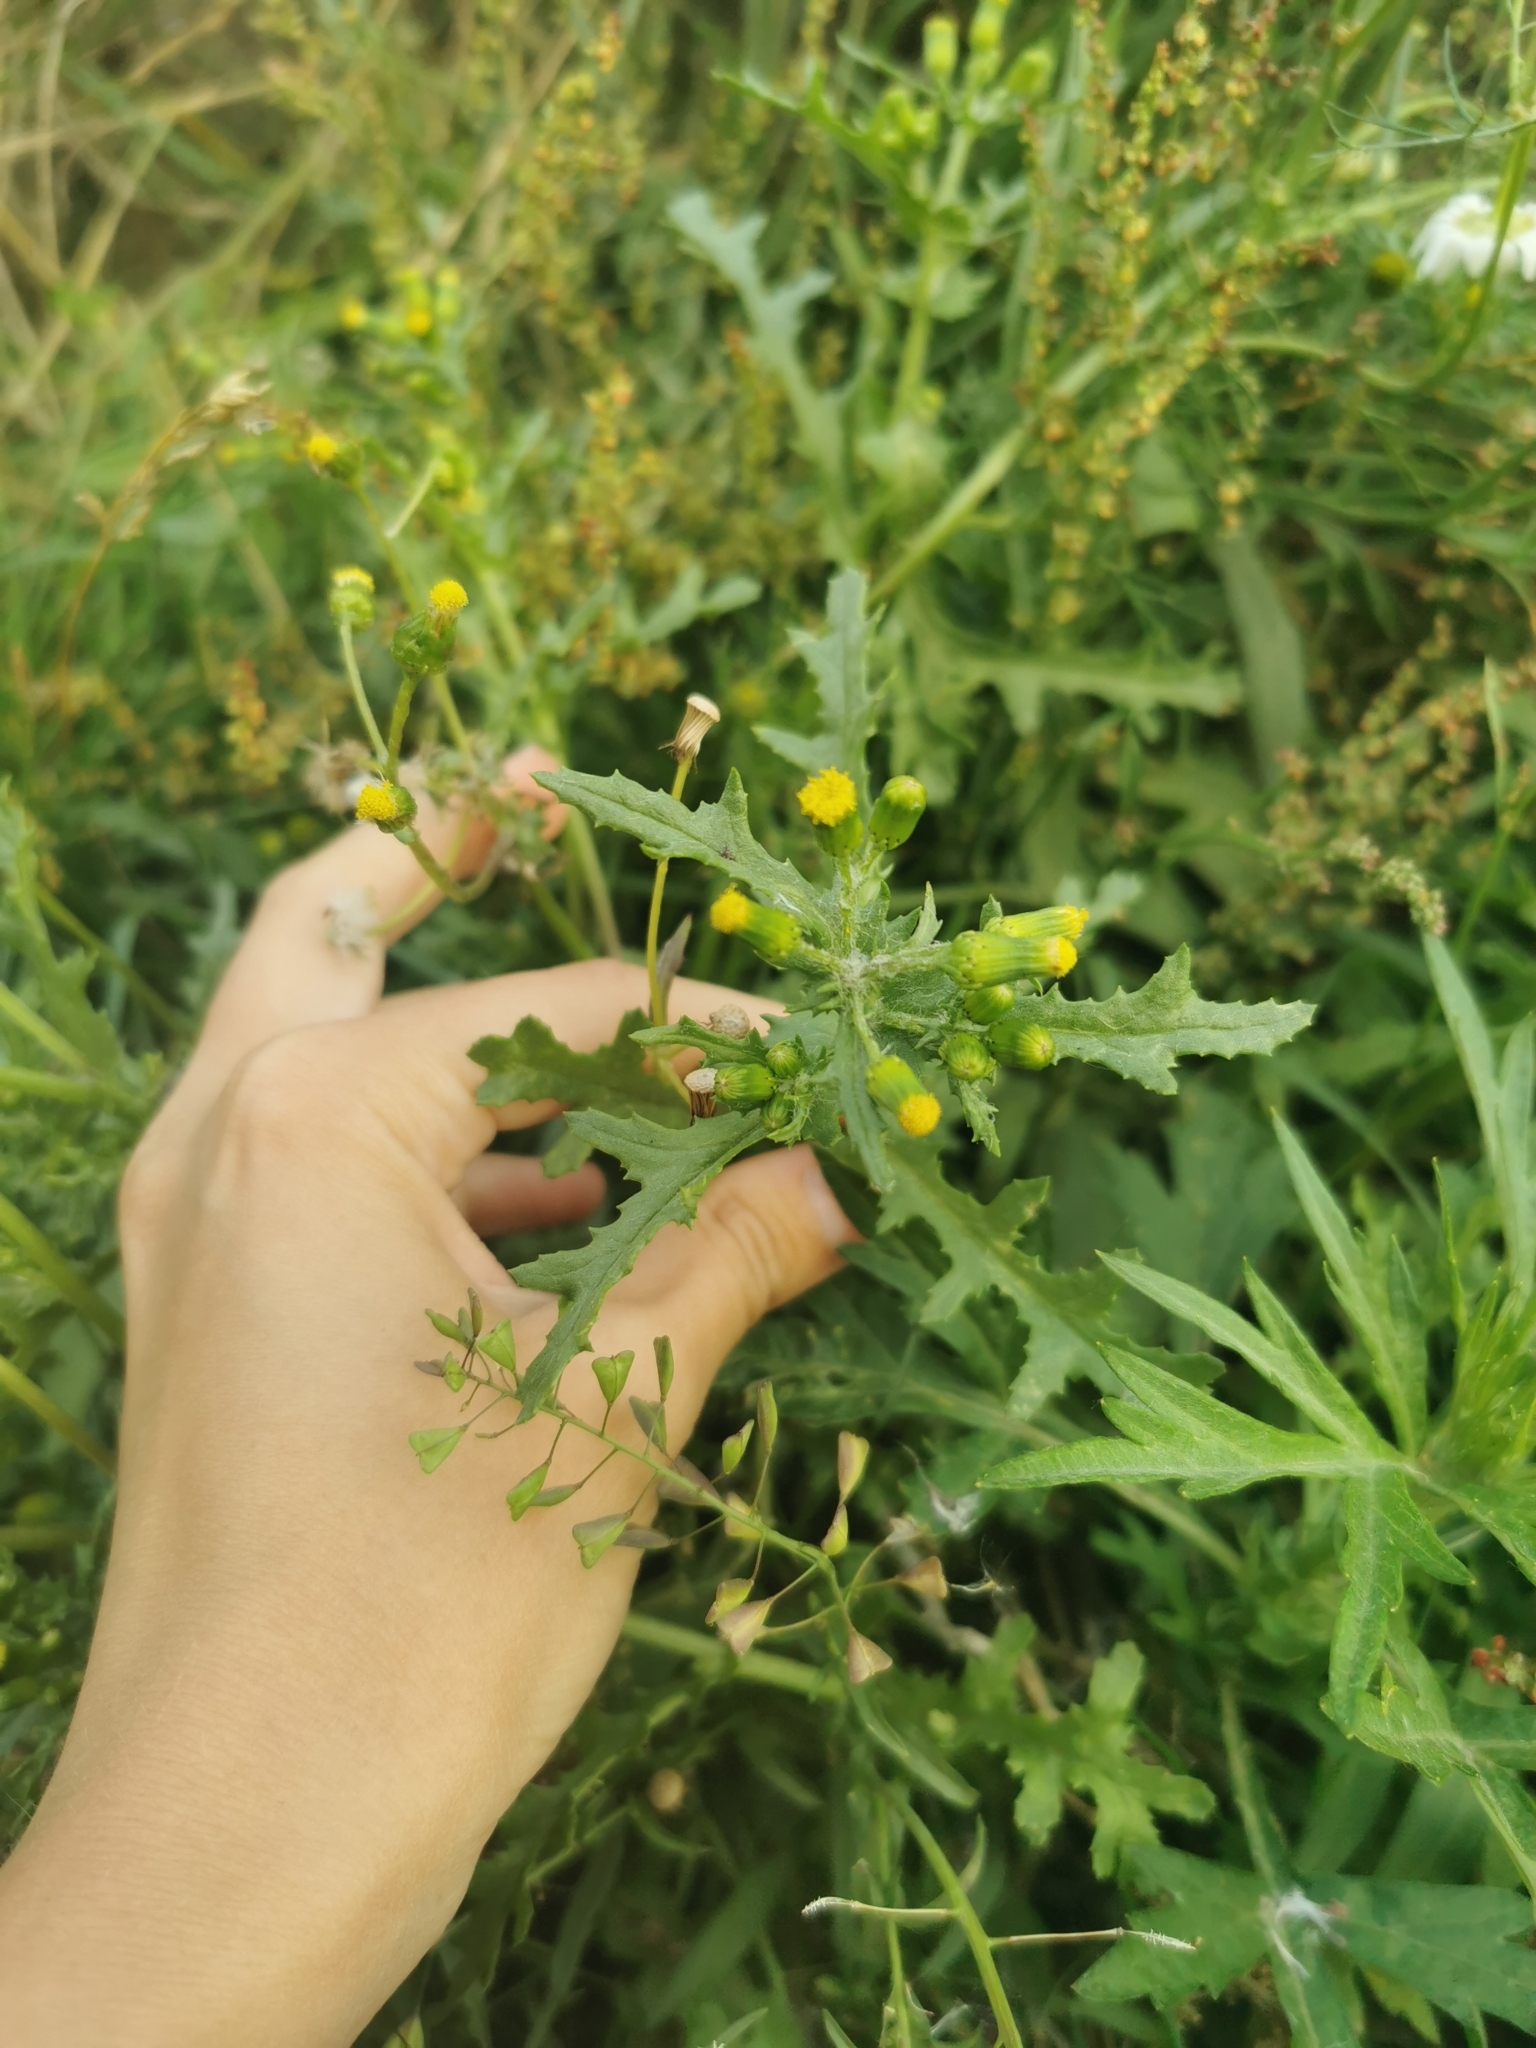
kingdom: Plantae
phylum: Tracheophyta
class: Magnoliopsida
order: Asterales
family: Asteraceae
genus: Senecio
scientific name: Senecio vulgaris
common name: Old-man-in-the-spring
